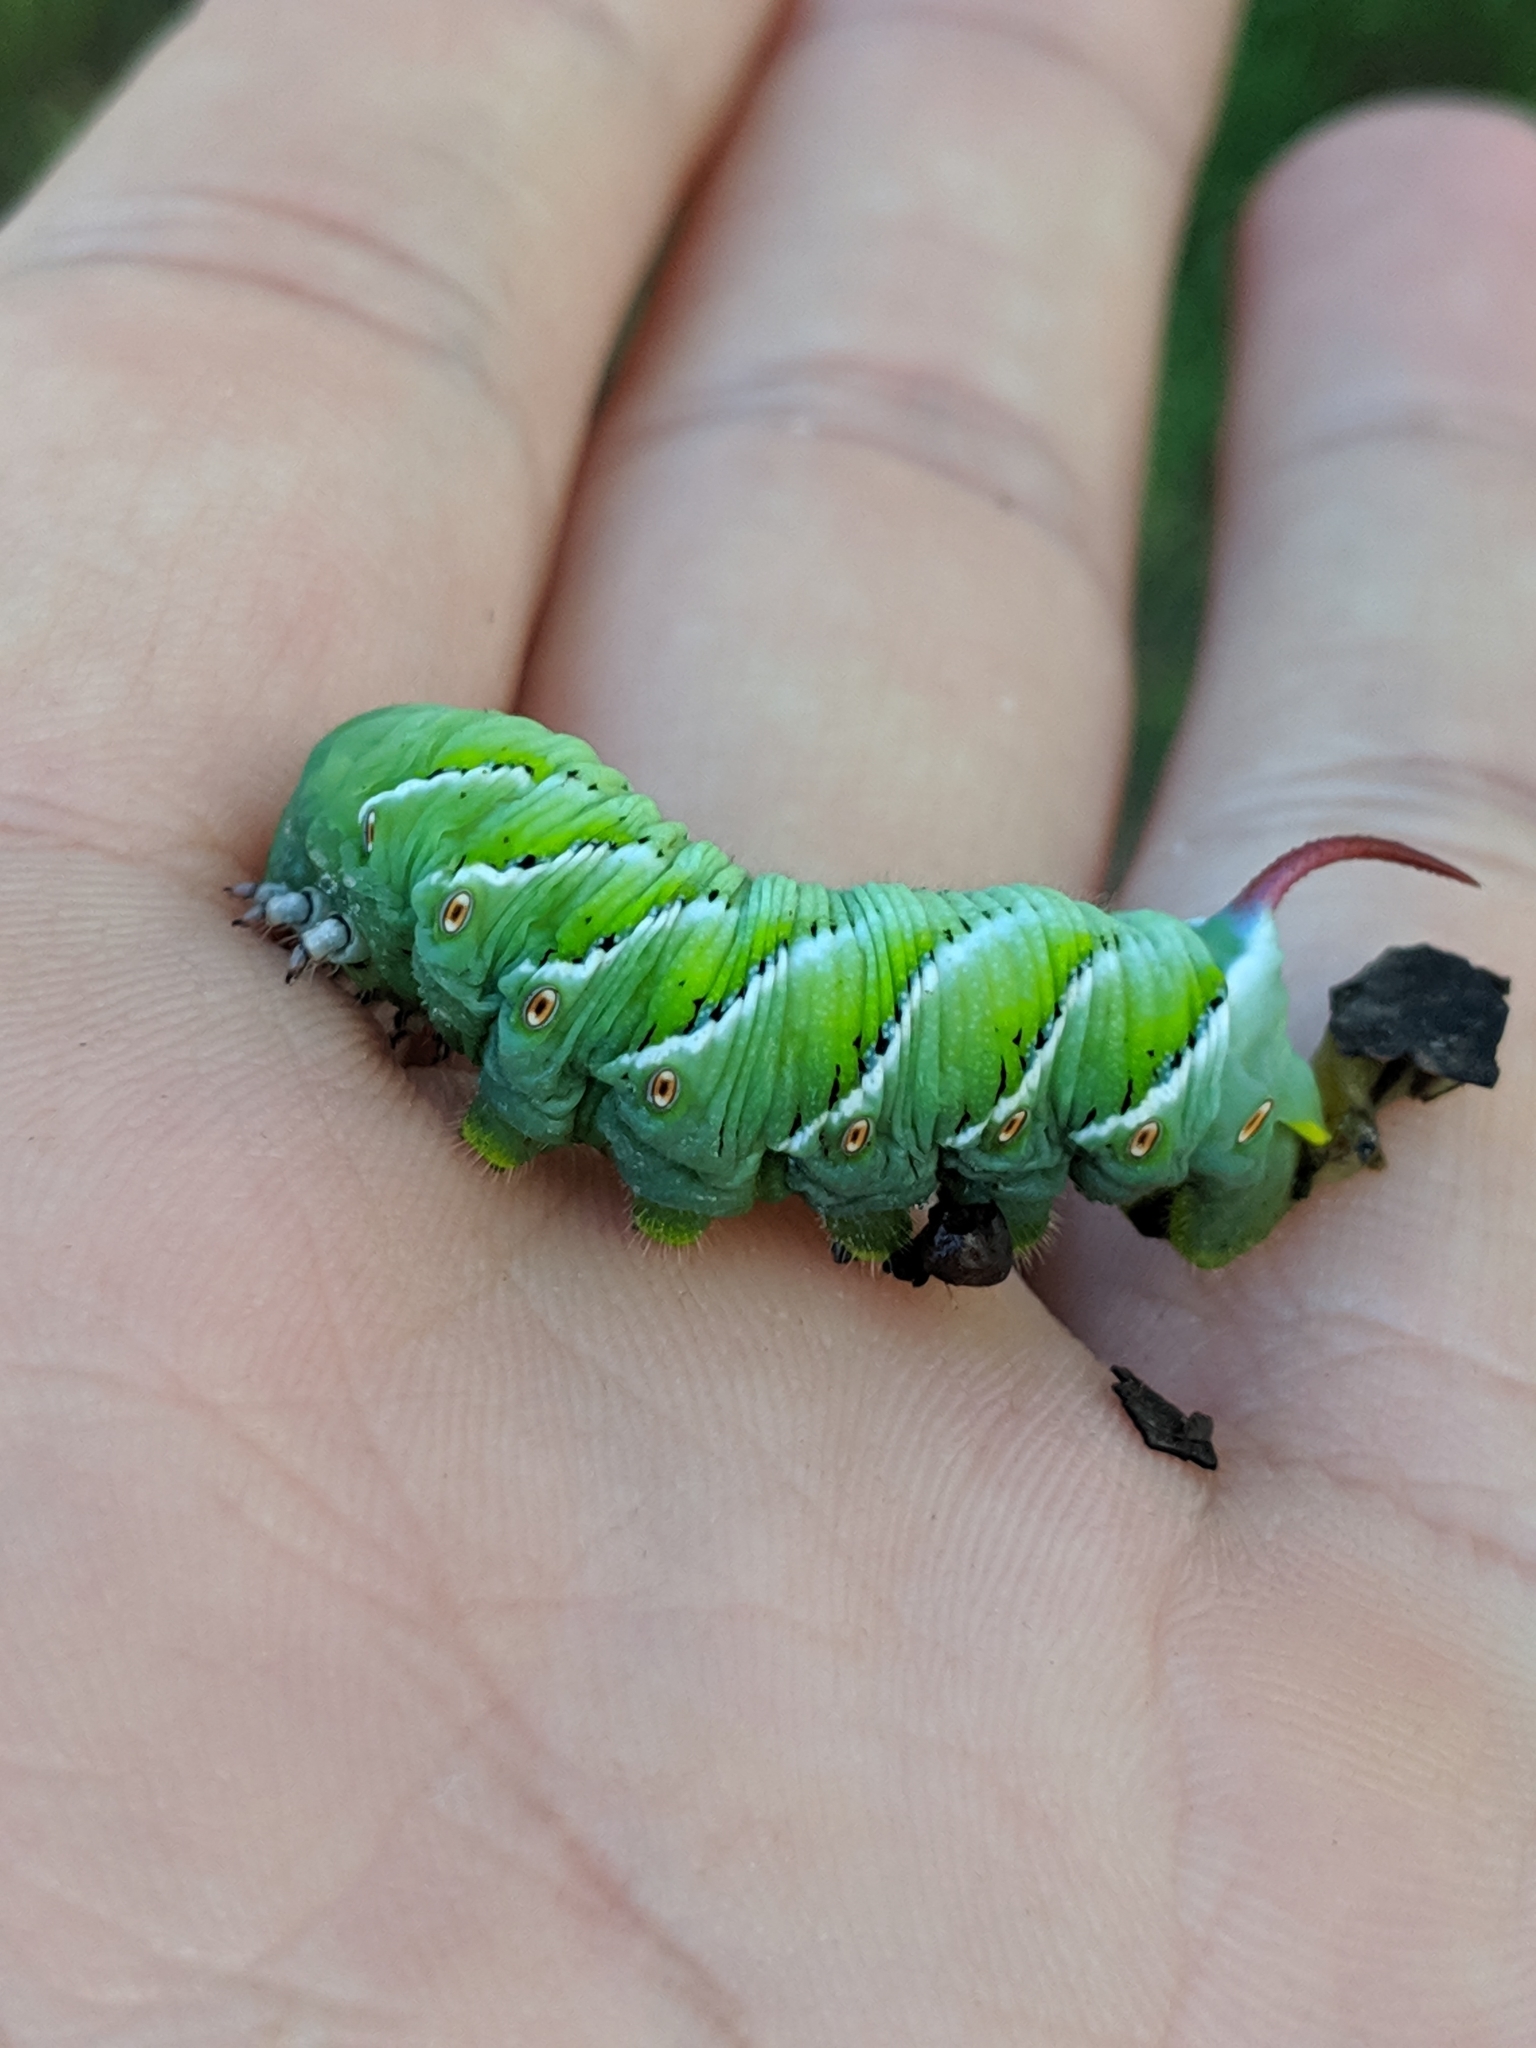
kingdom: Animalia
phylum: Arthropoda
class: Insecta
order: Lepidoptera
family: Sphingidae
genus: Manduca
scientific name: Manduca sexta
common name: Carolina sphinx
